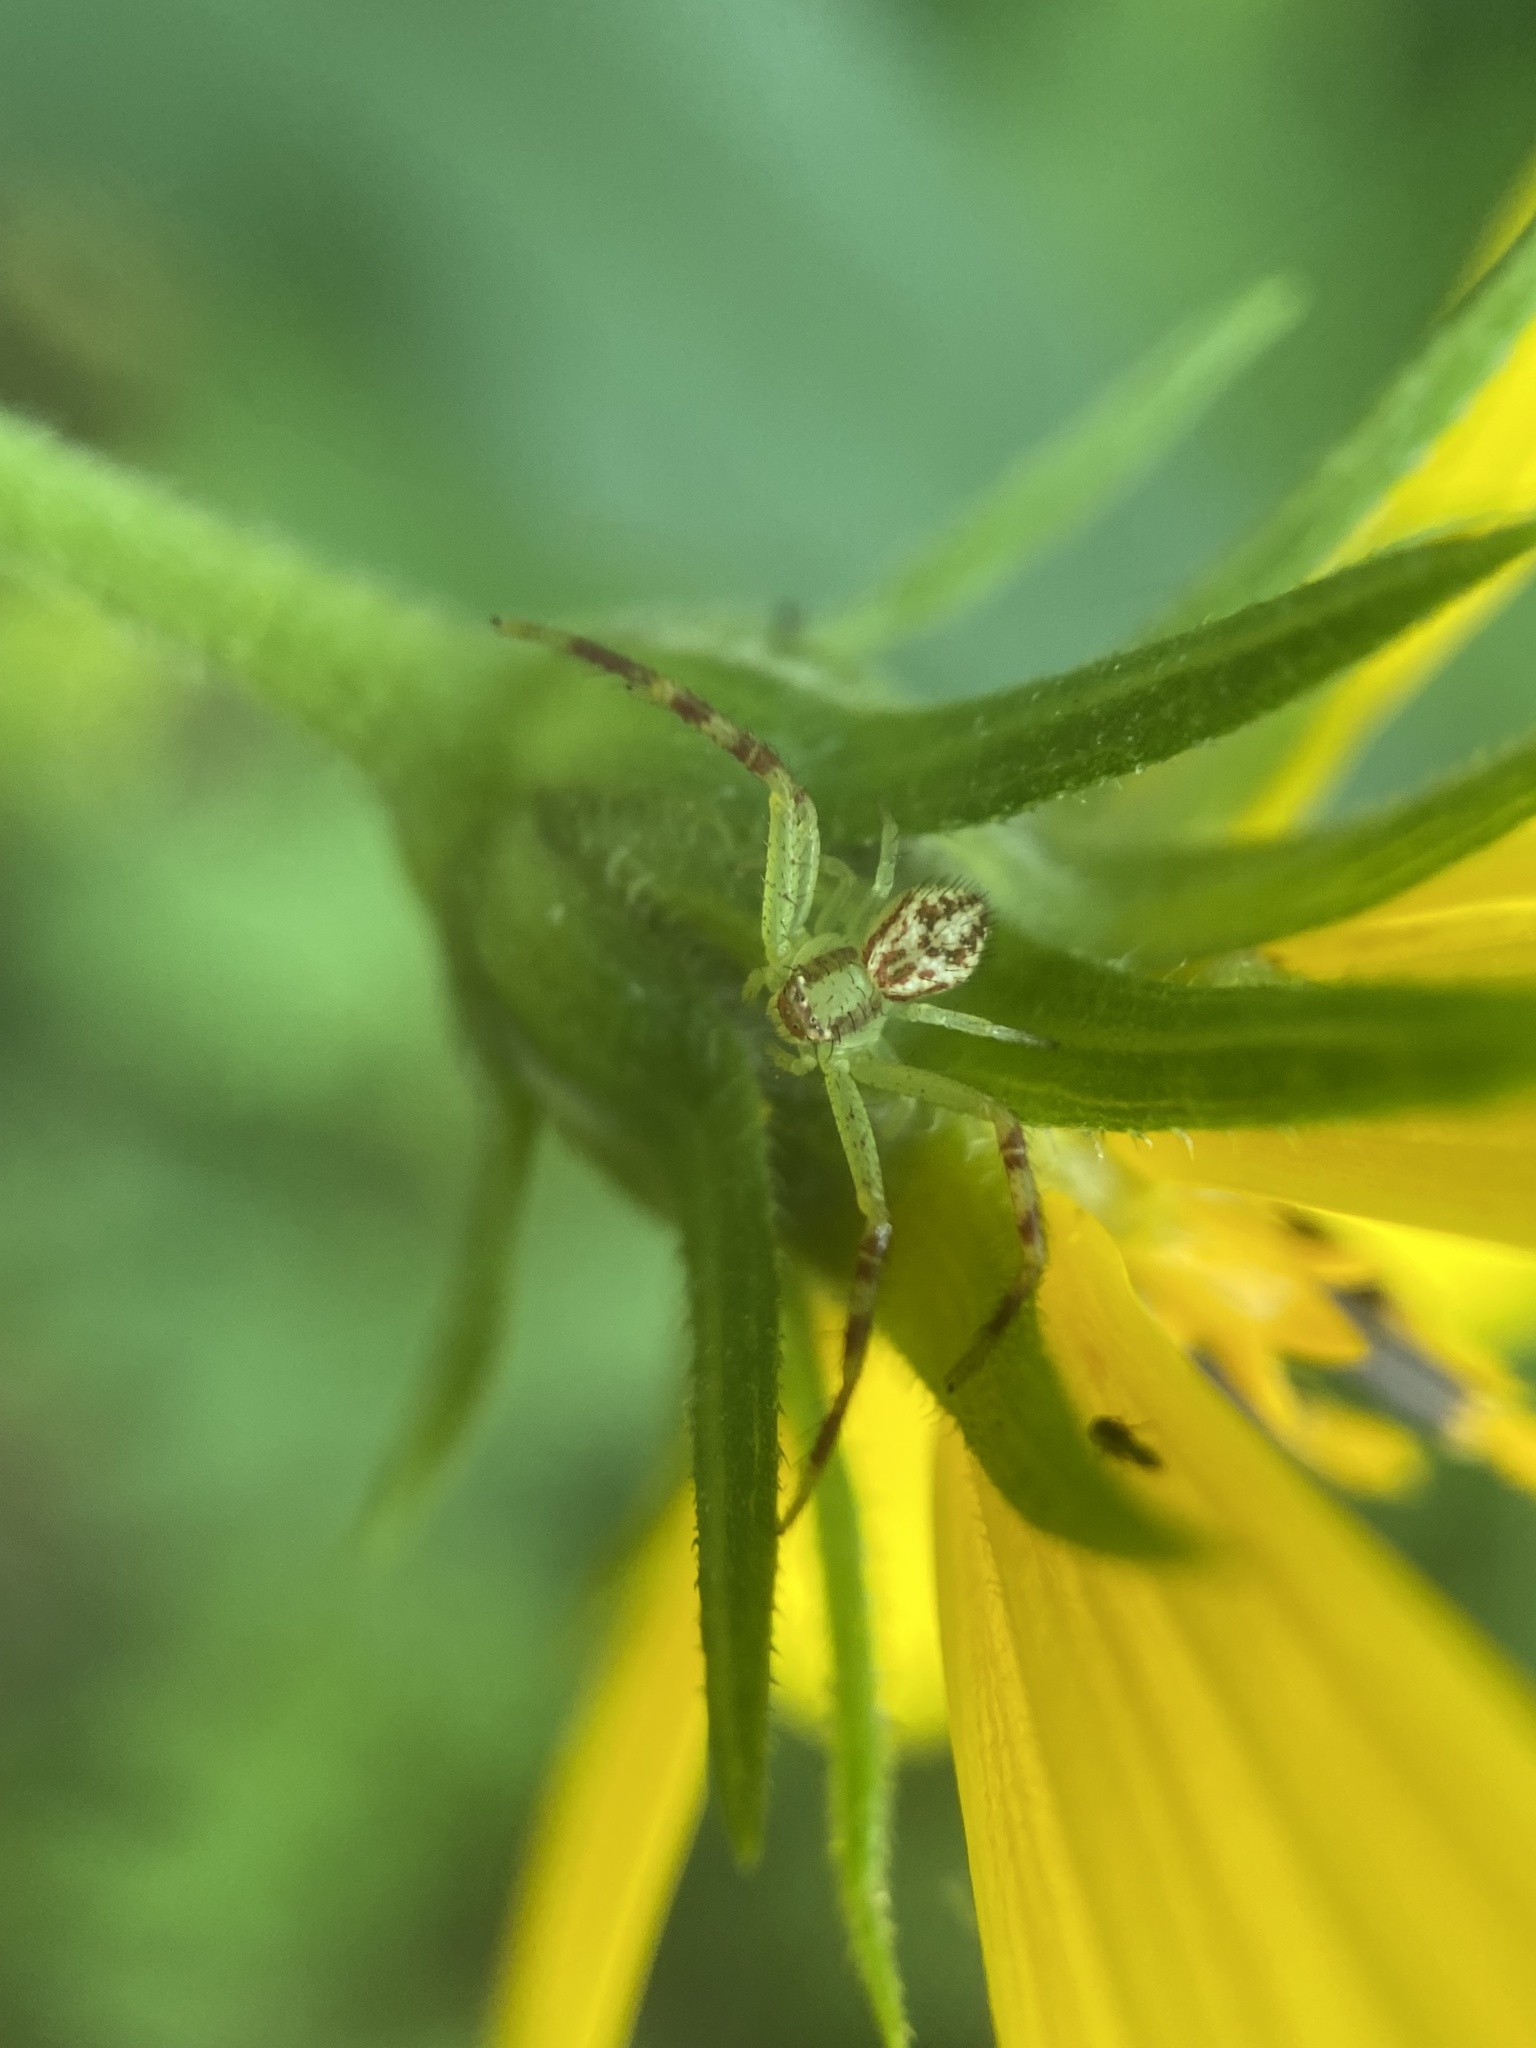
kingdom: Animalia
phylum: Arthropoda
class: Arachnida
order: Araneae
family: Thomisidae
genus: Mecaphesa
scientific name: Mecaphesa asperata
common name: Crab spiders
